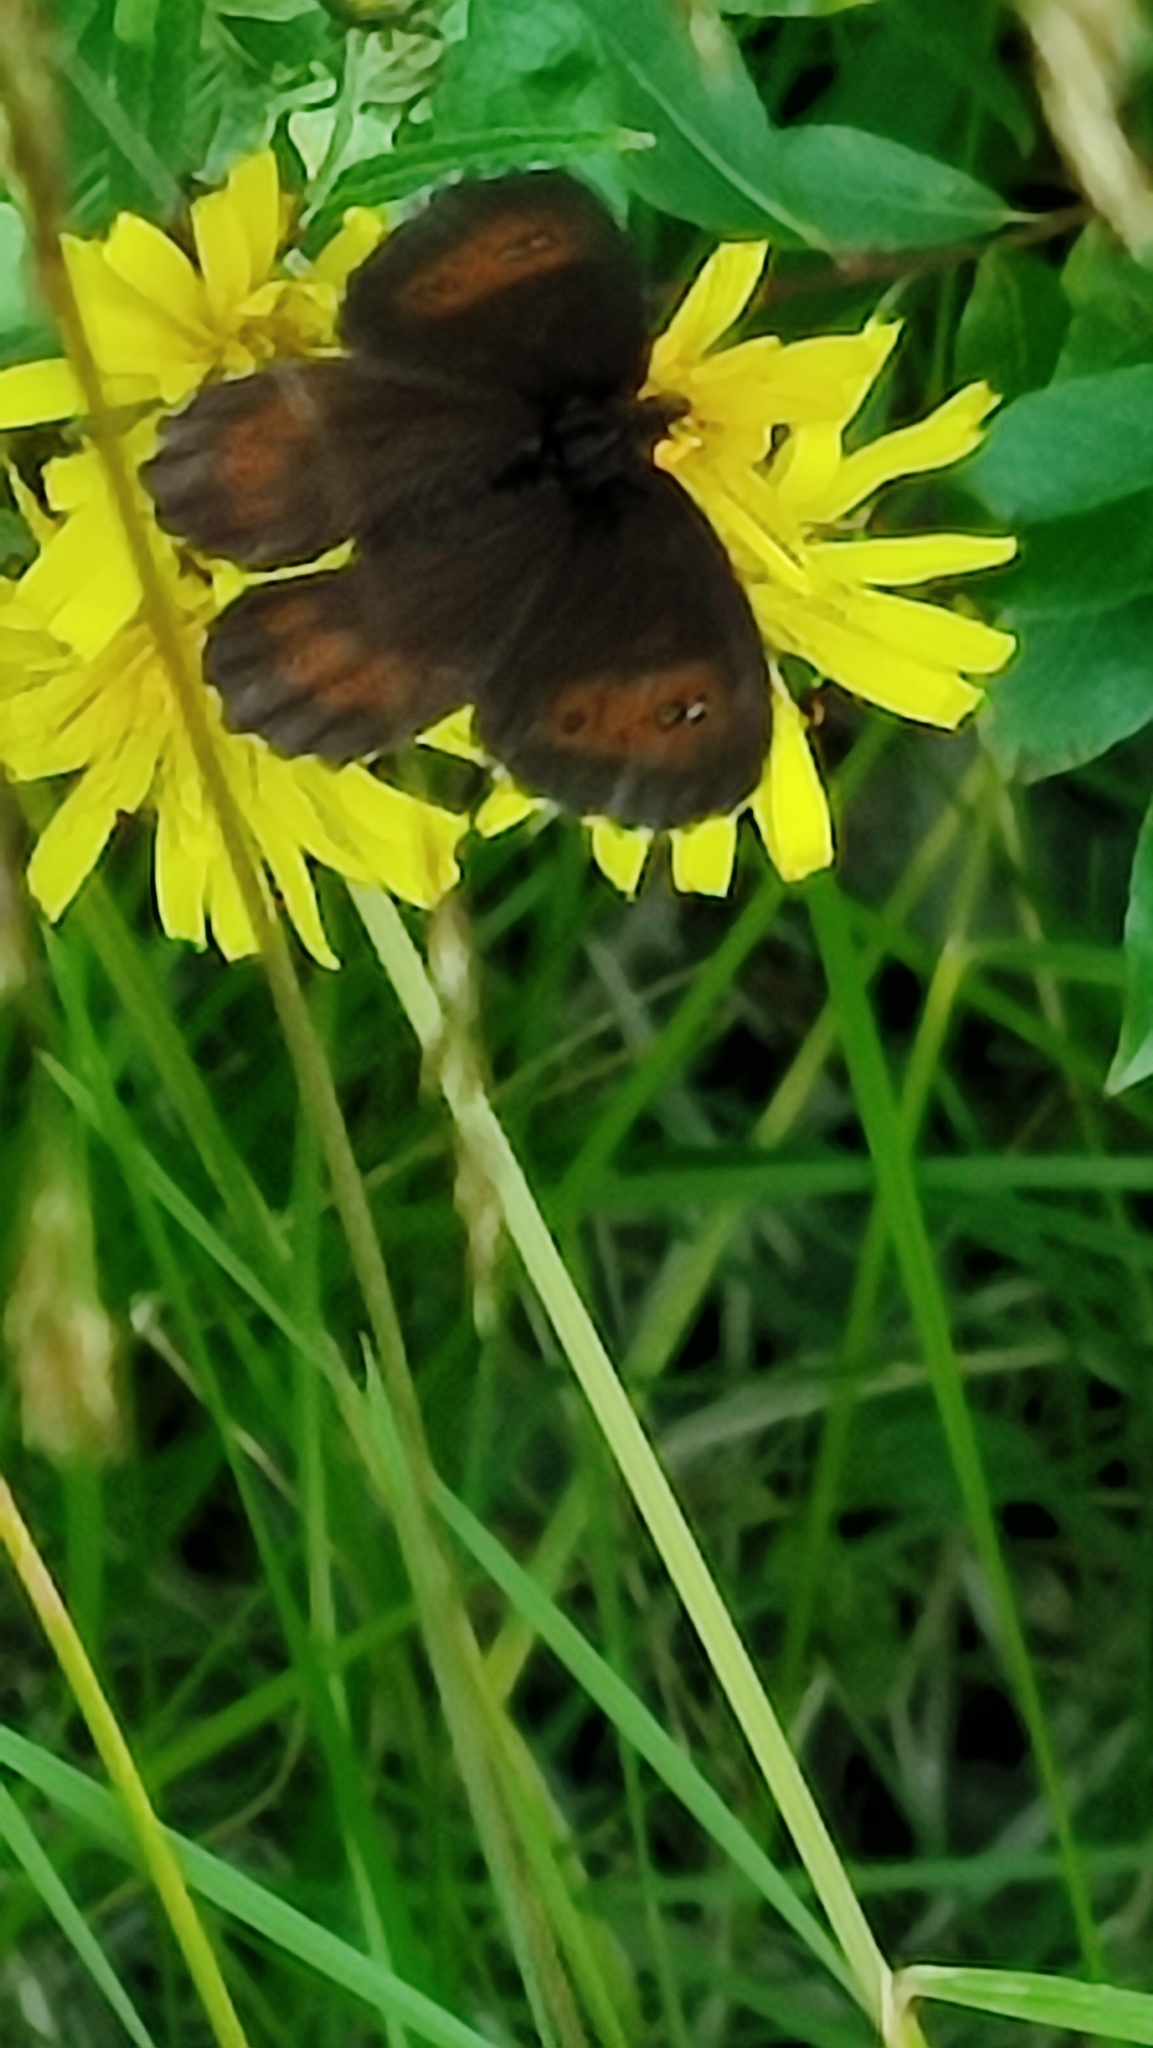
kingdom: Animalia
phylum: Arthropoda
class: Insecta
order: Lepidoptera
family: Nymphalidae
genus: Erebia
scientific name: Erebia ligea
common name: Arran brown
